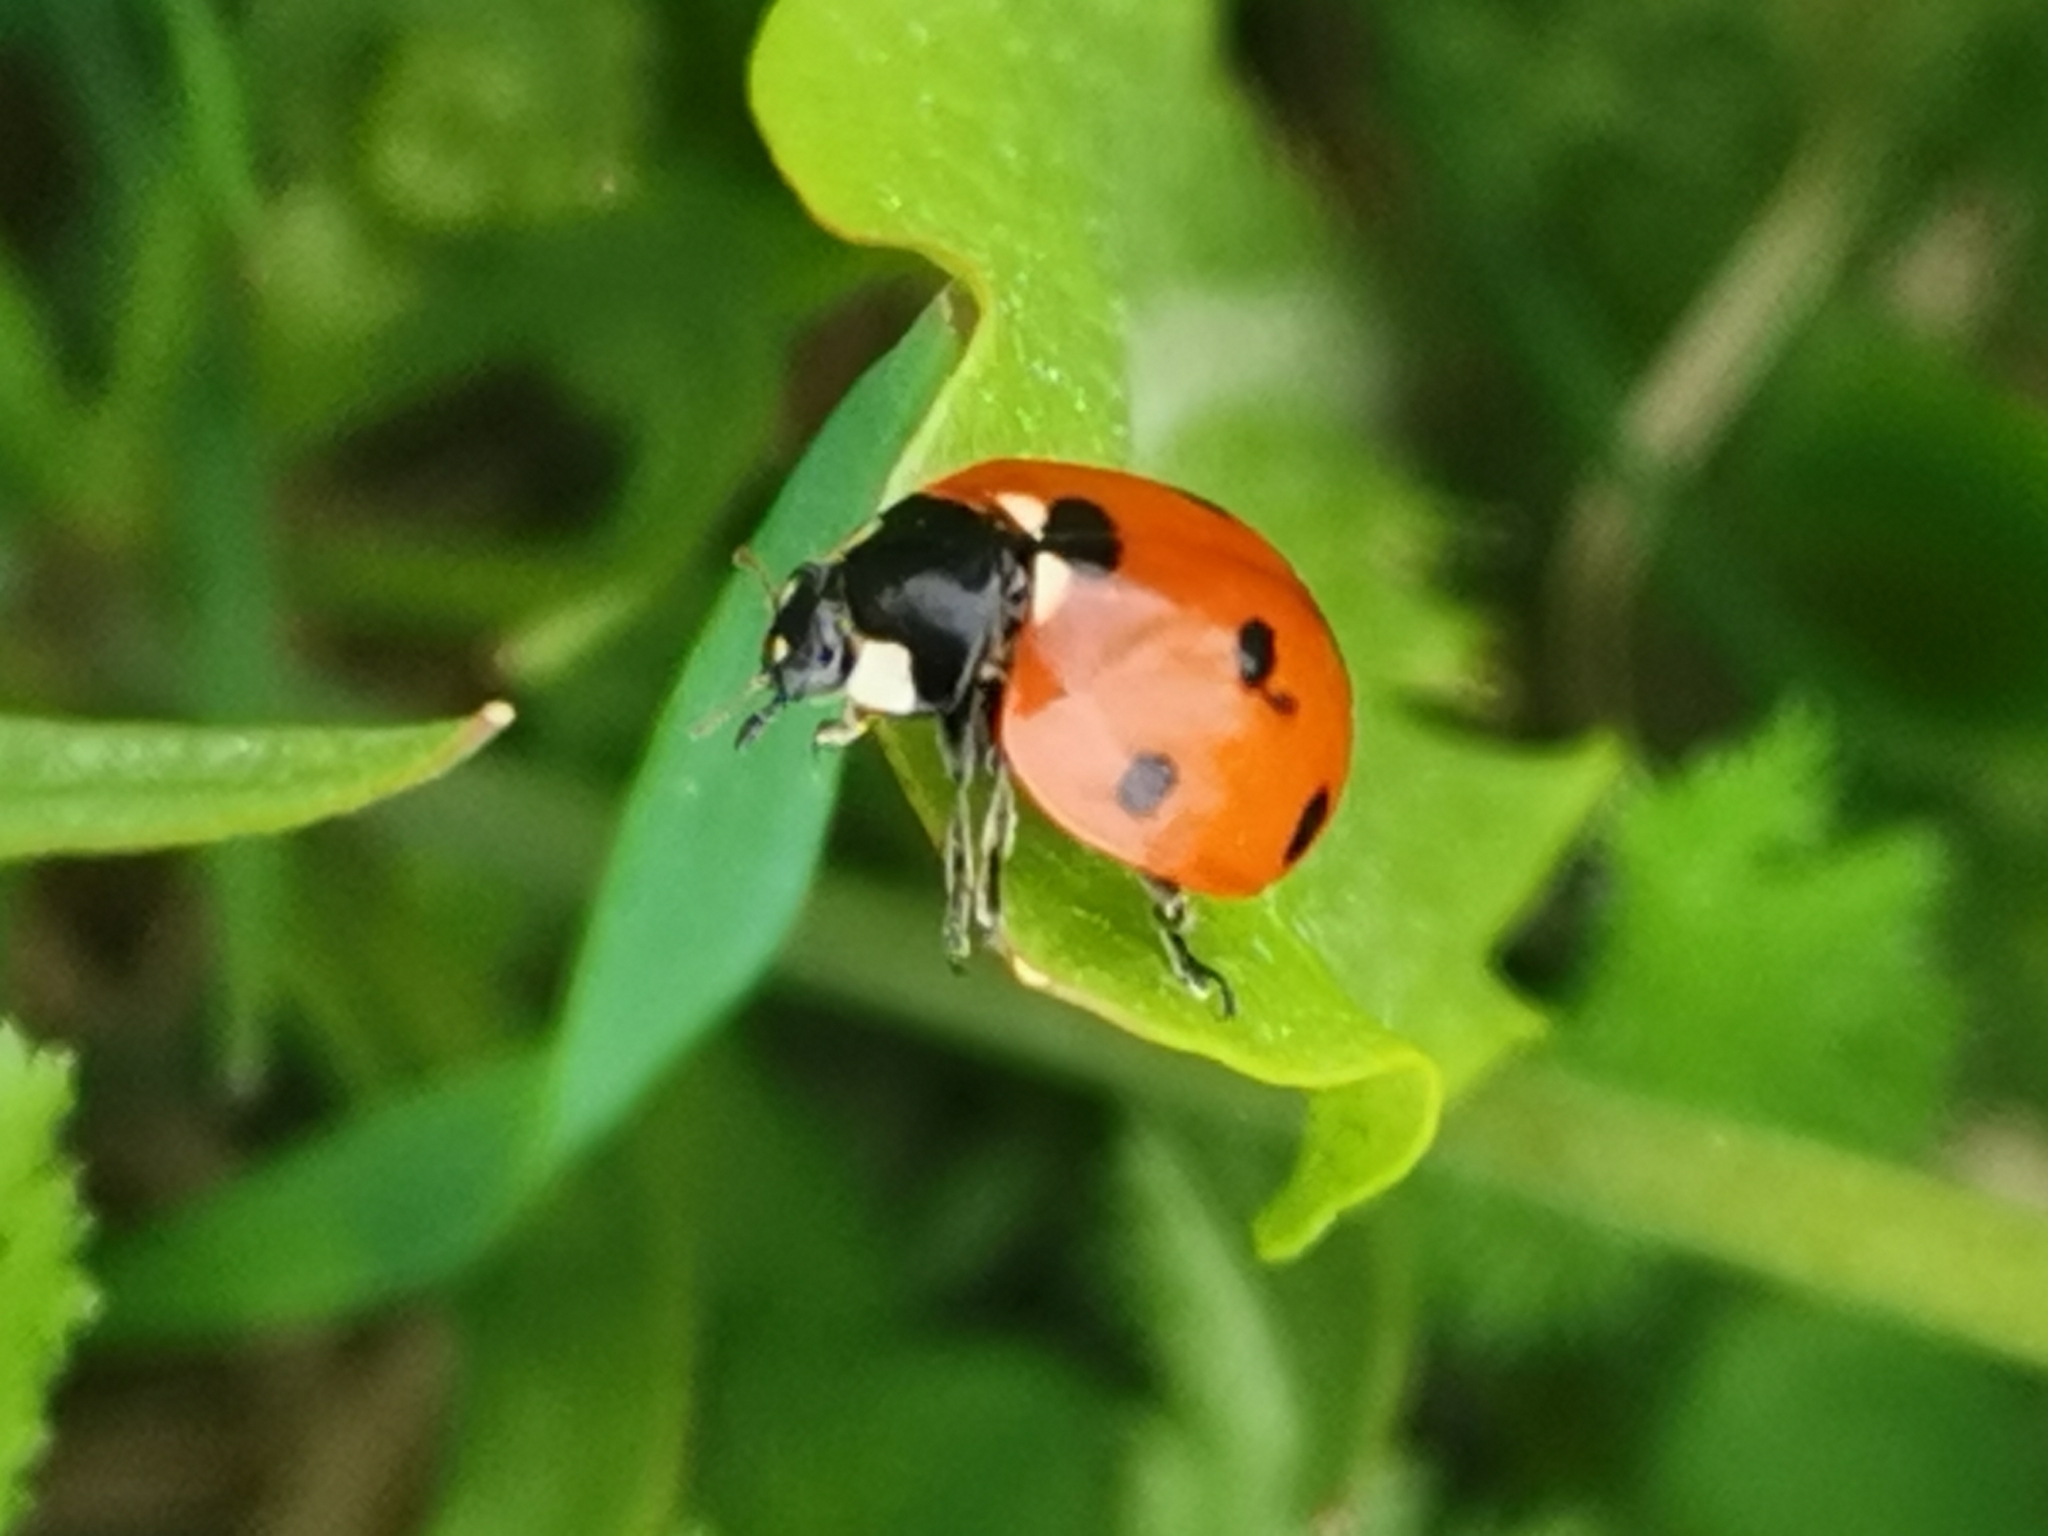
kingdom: Animalia
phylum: Arthropoda
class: Insecta
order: Coleoptera
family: Coccinellidae
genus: Coccinella
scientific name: Coccinella septempunctata
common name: Sevenspotted lady beetle
